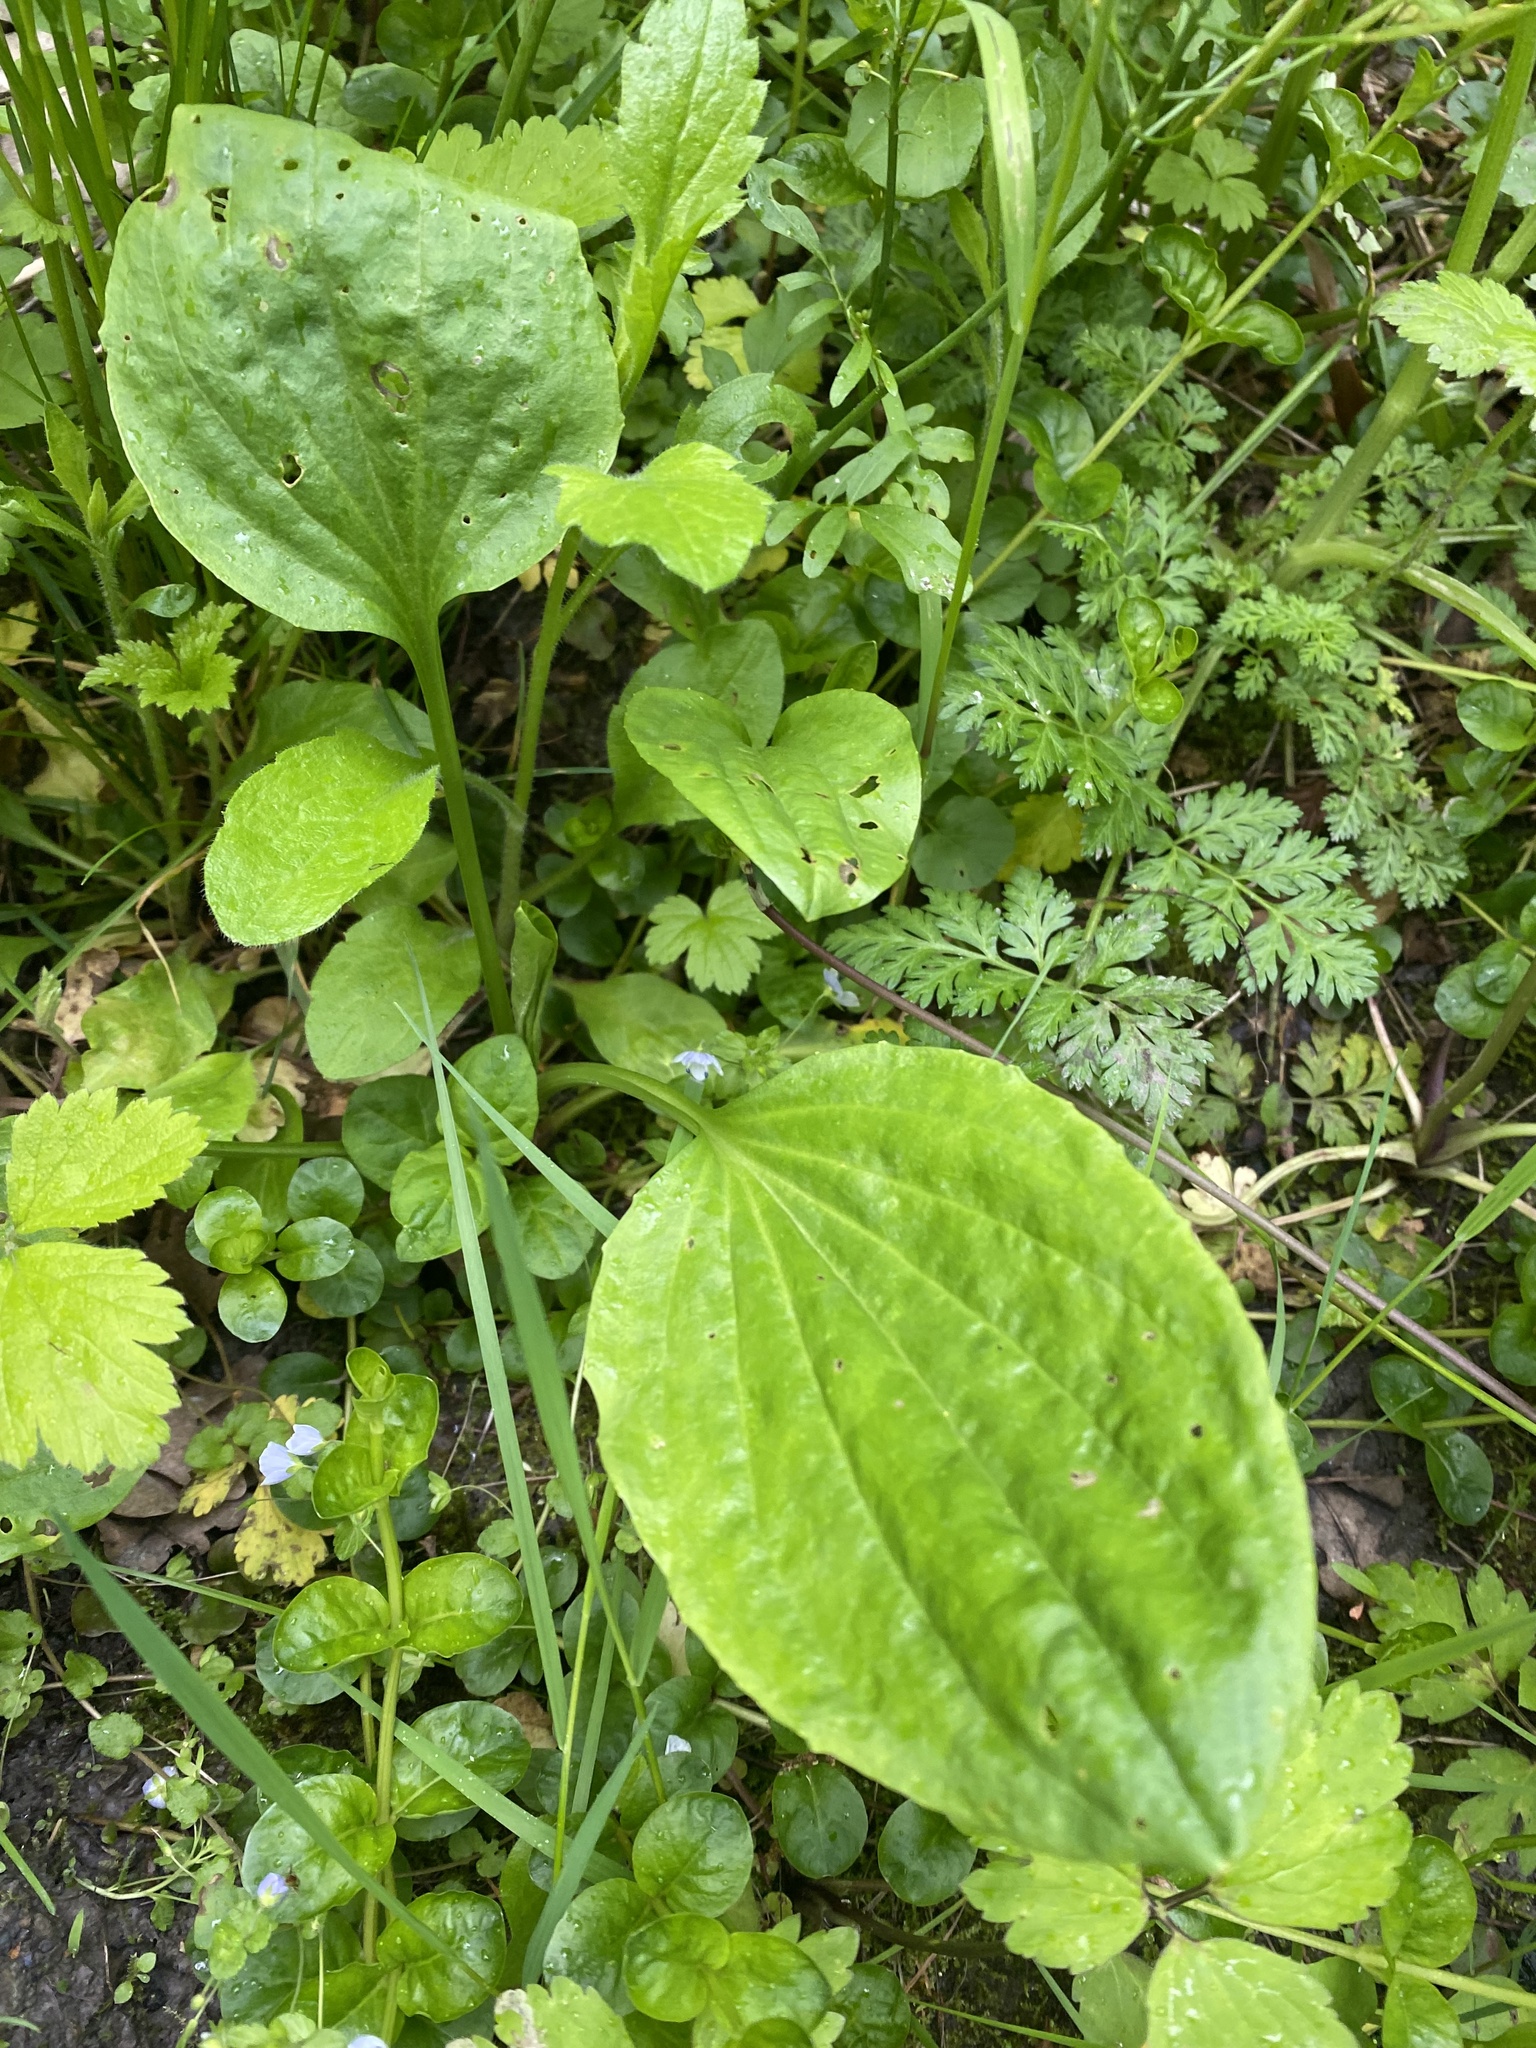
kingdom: Plantae
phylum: Tracheophyta
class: Magnoliopsida
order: Lamiales
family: Plantaginaceae
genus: Plantago
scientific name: Plantago major
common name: Common plantain
